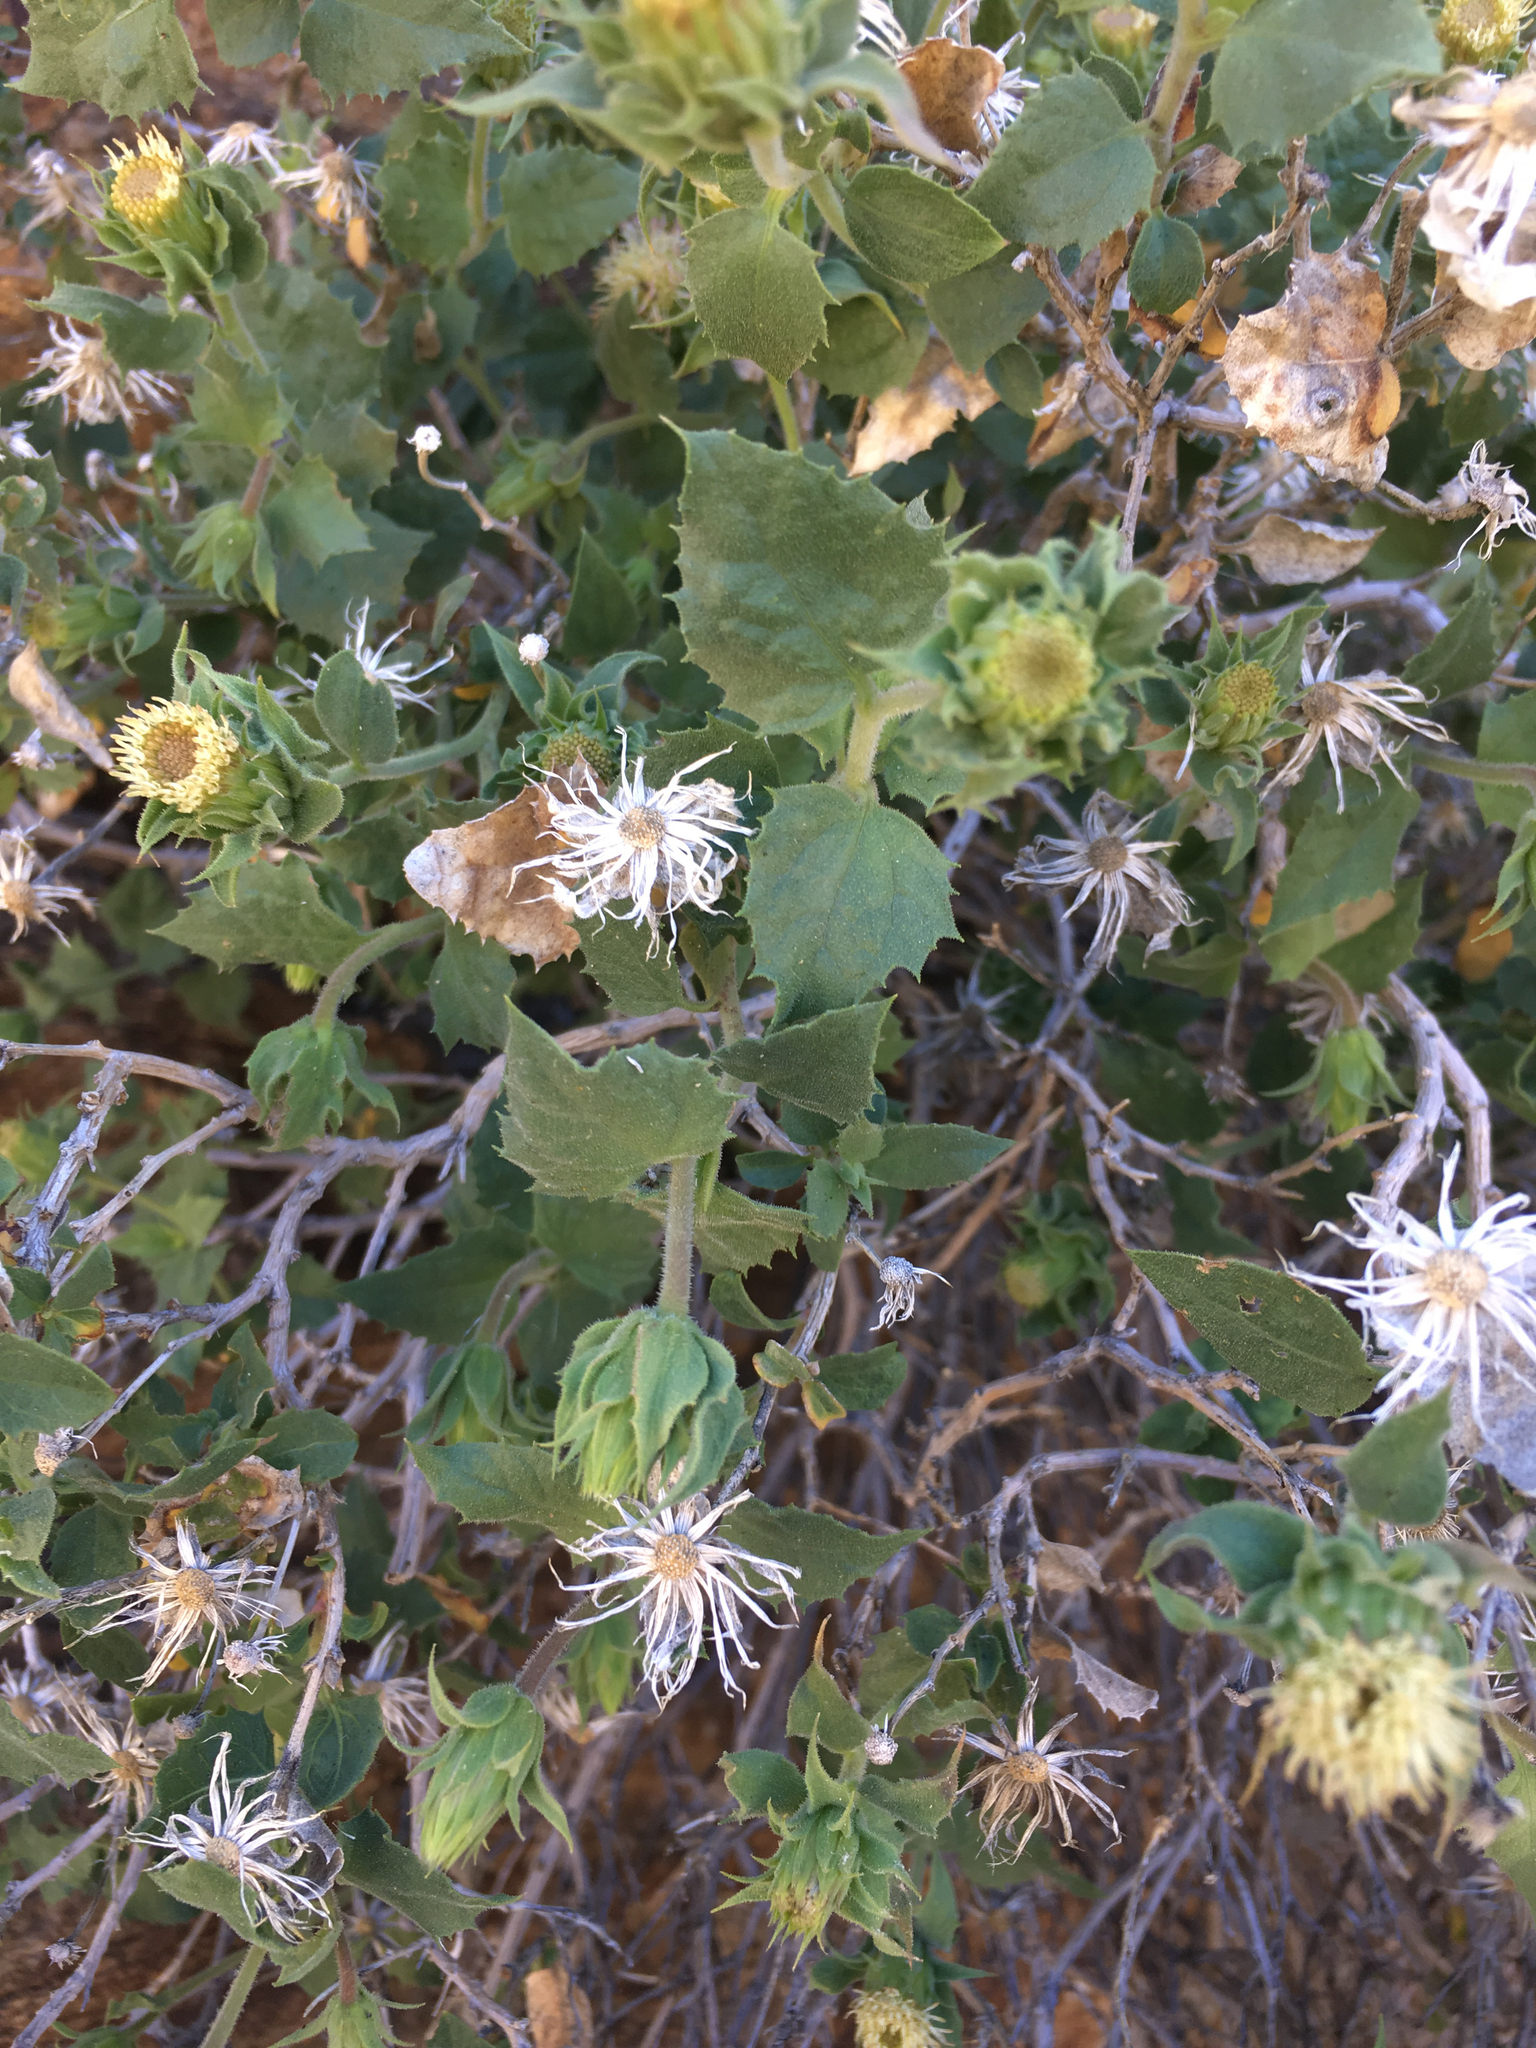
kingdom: Plantae
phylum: Tracheophyta
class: Magnoliopsida
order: Asterales
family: Asteraceae
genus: Brickellia
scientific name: Brickellia atractyloides
